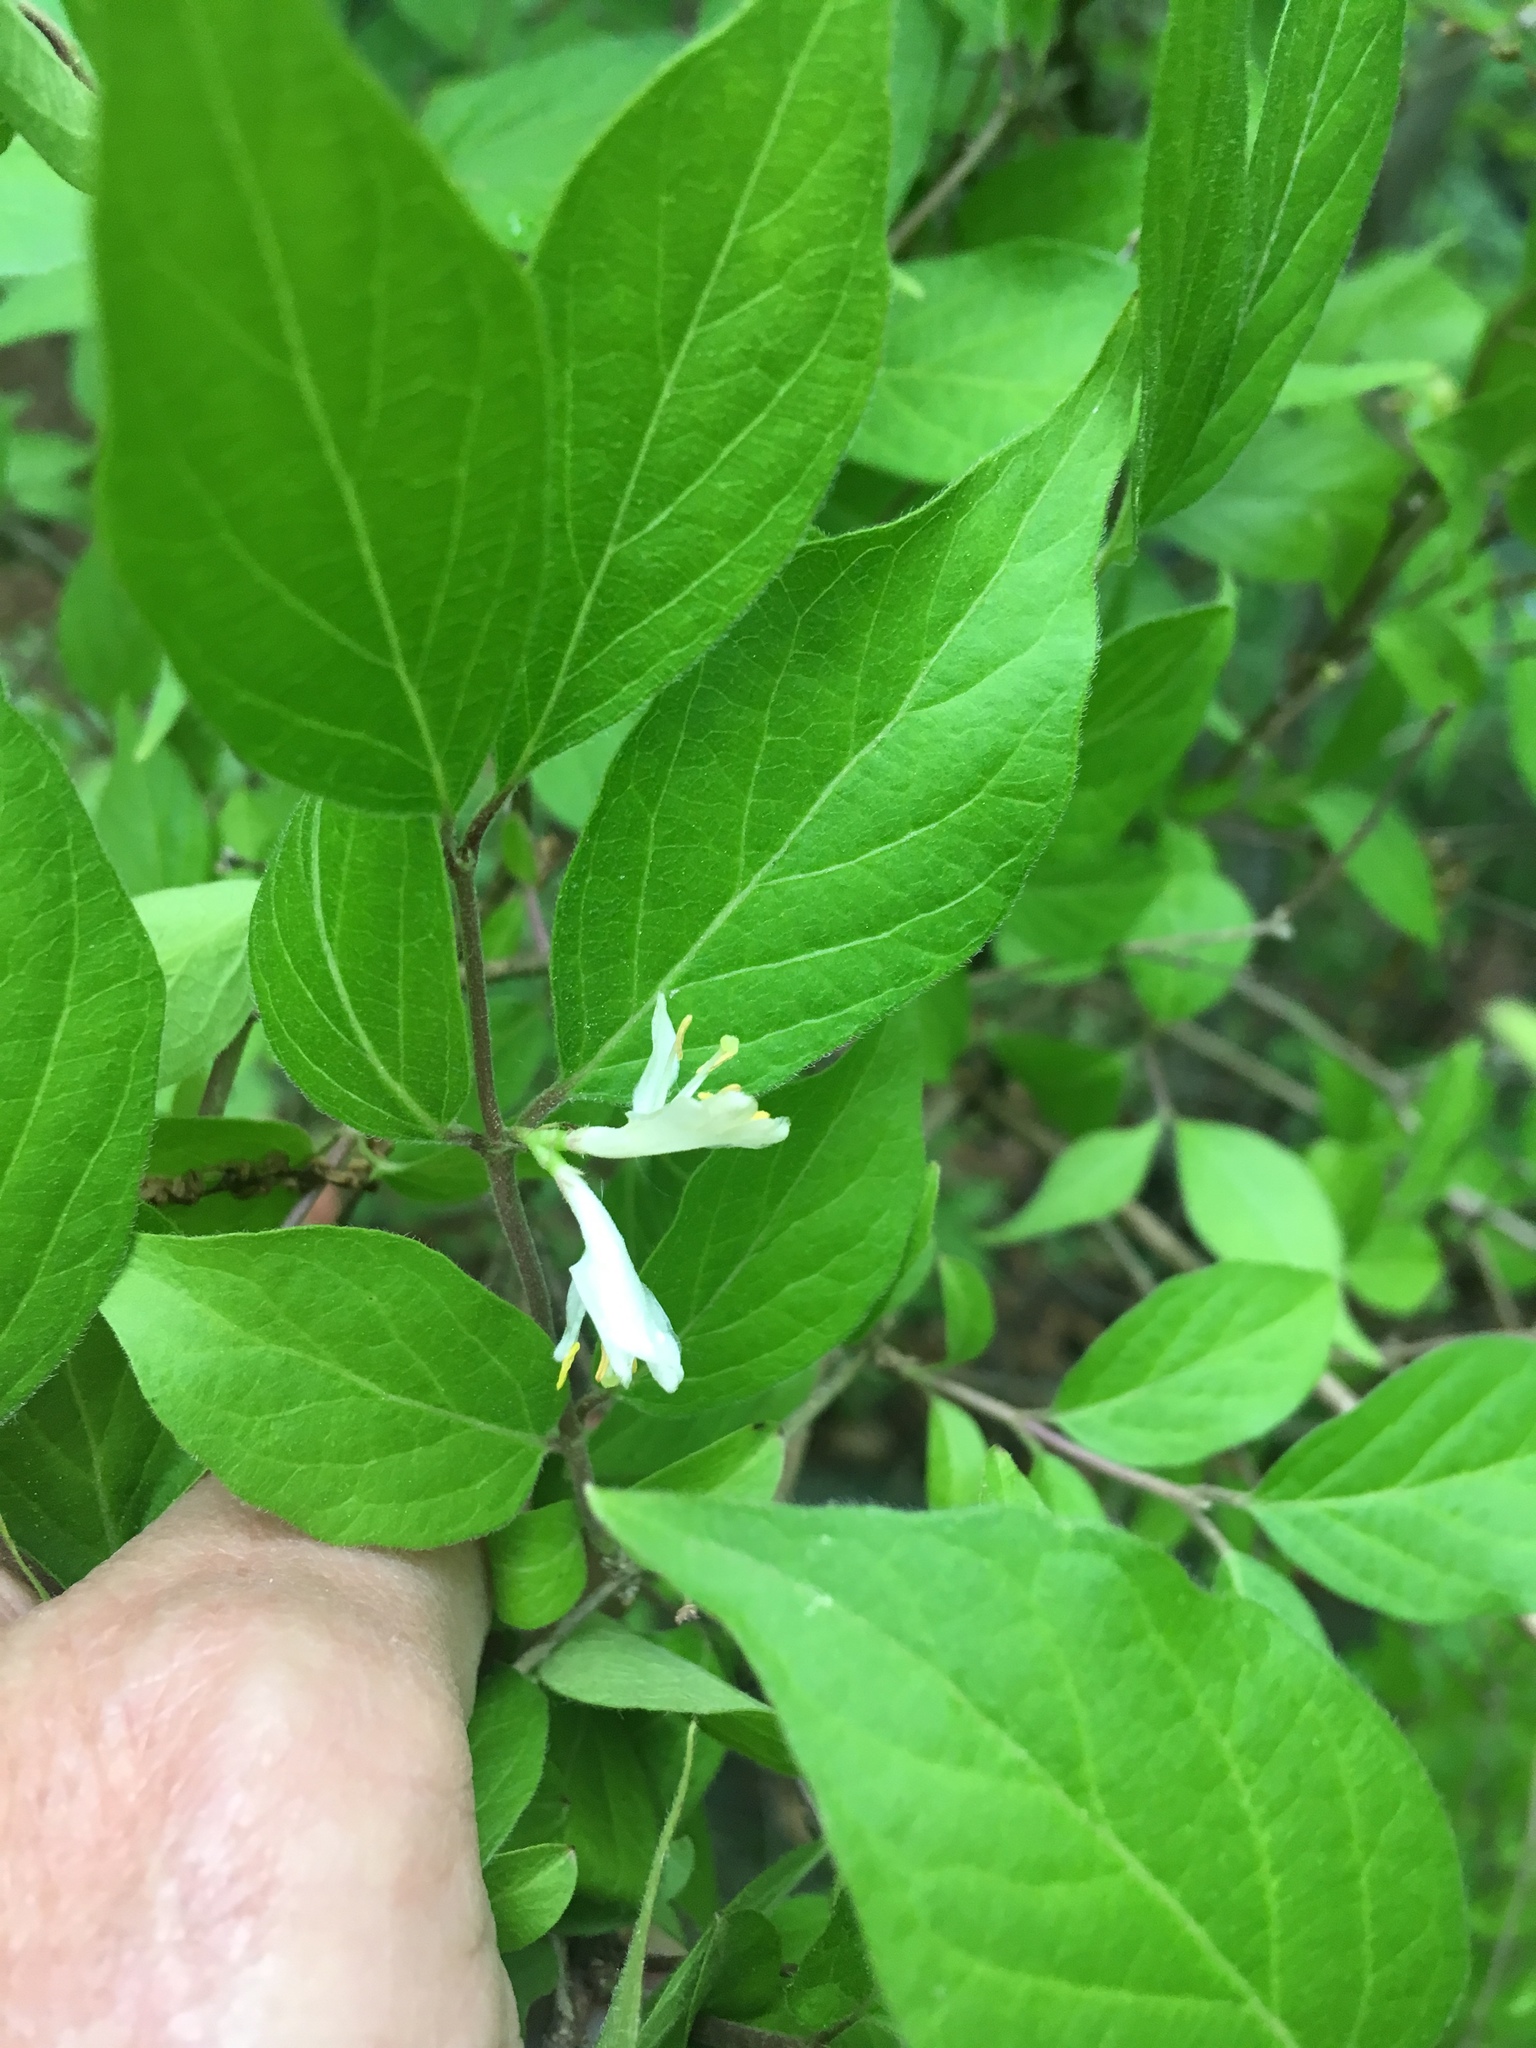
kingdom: Plantae
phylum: Tracheophyta
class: Magnoliopsida
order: Dipsacales
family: Caprifoliaceae
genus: Lonicera
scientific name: Lonicera maackii
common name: Amur honeysuckle
